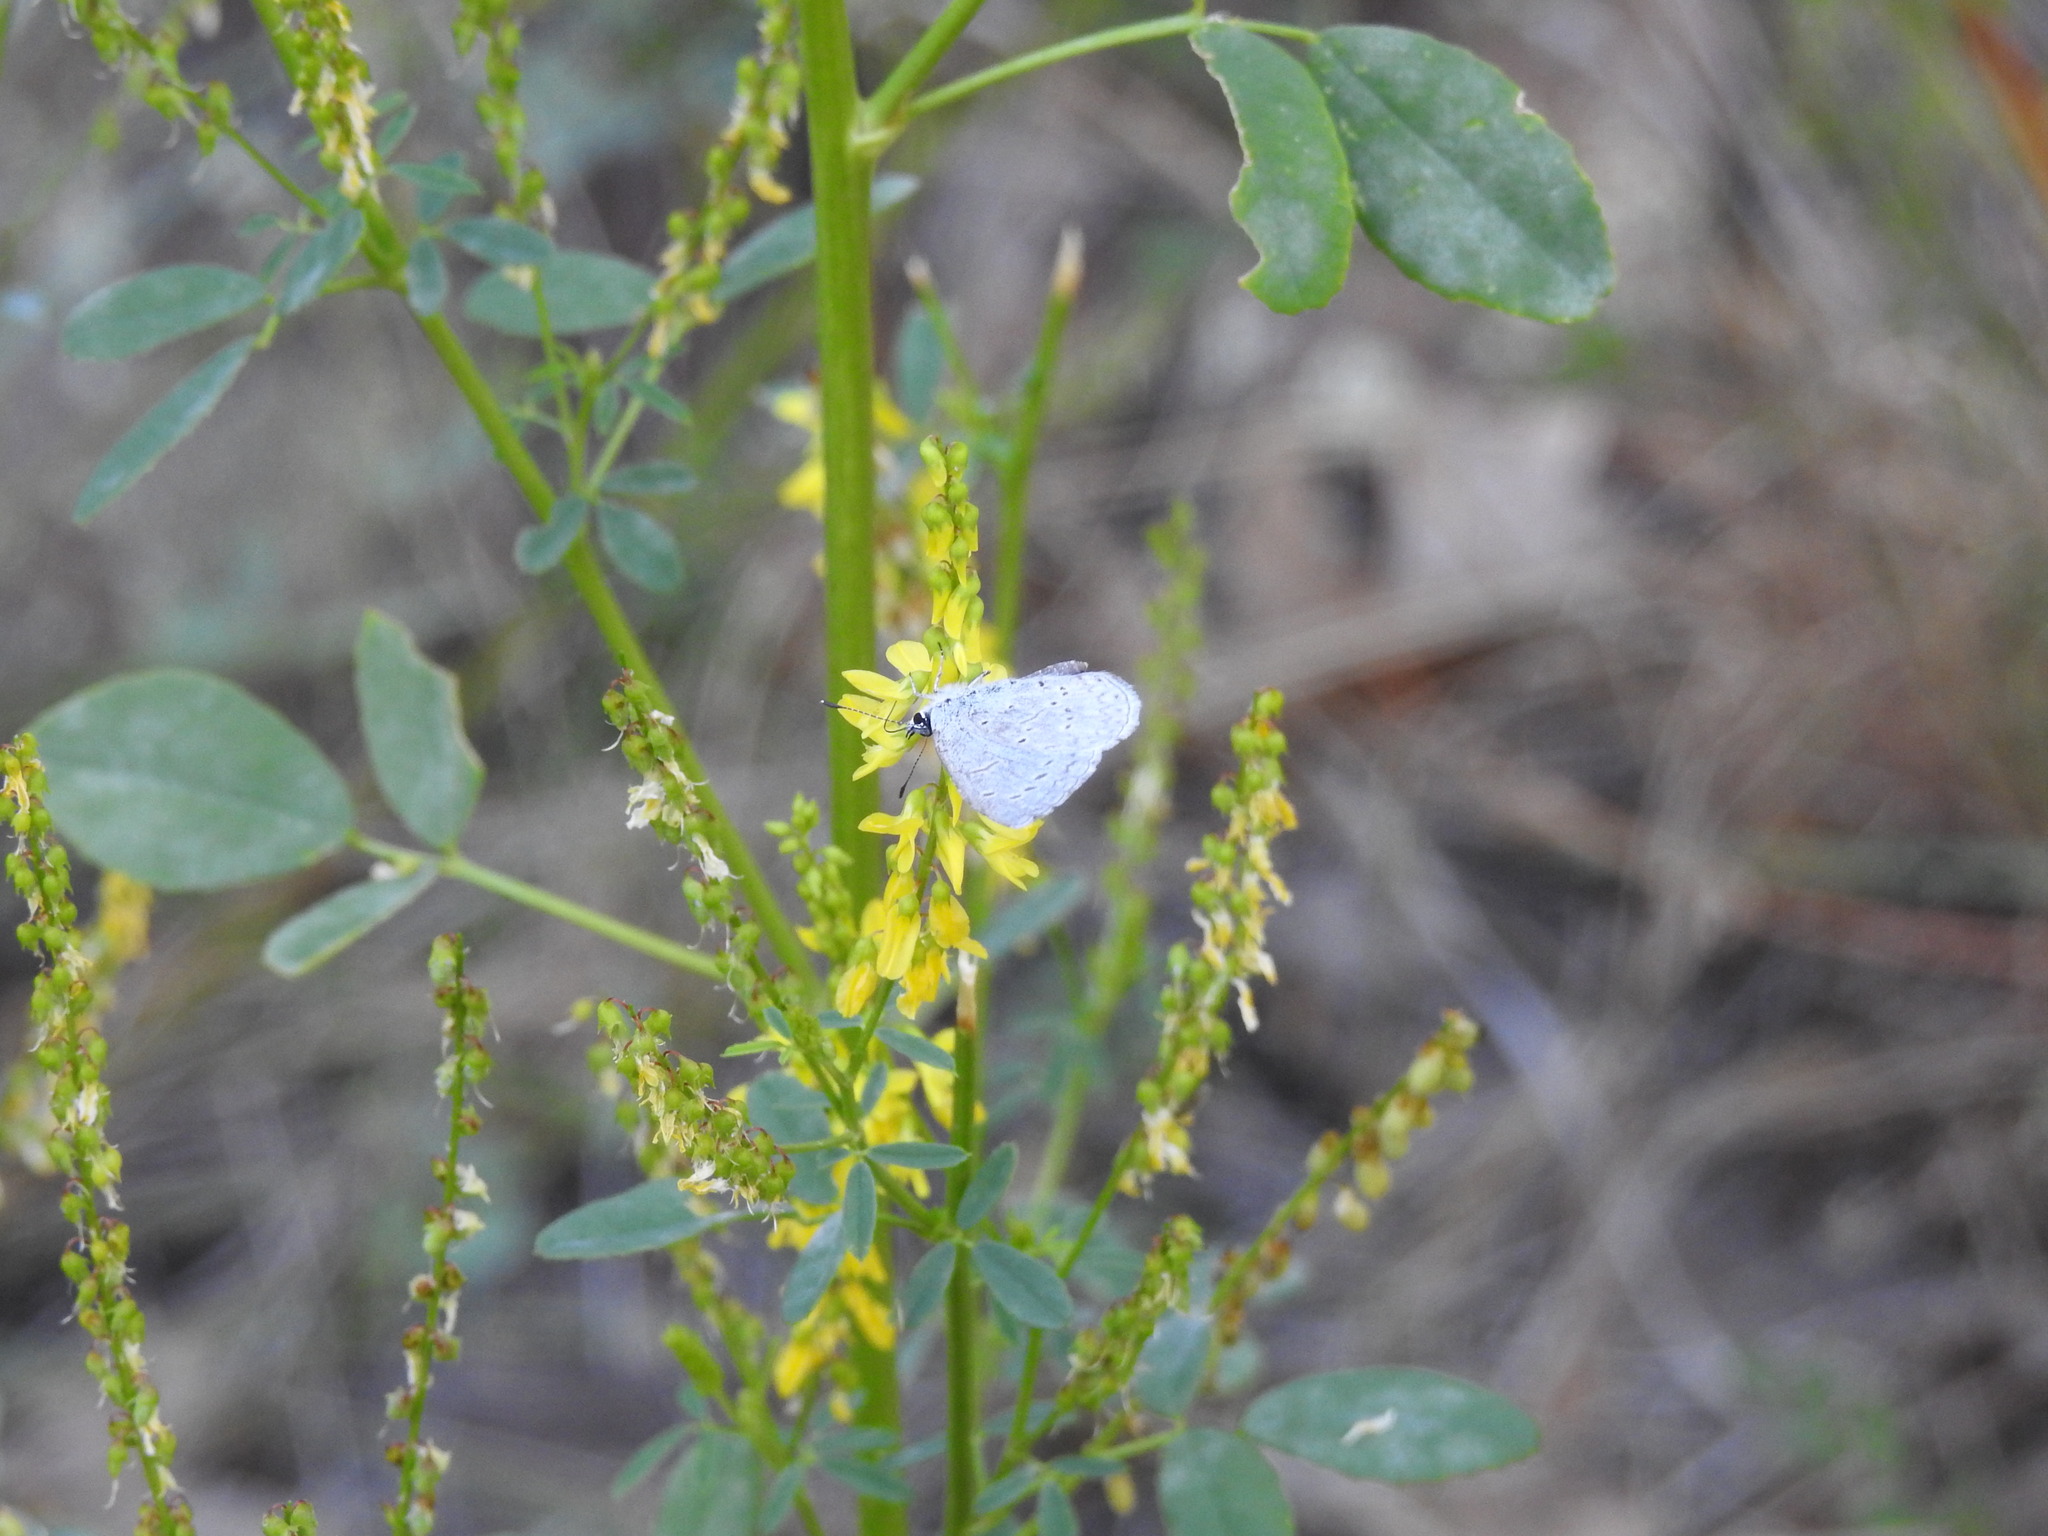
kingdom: Animalia
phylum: Arthropoda
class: Insecta
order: Lepidoptera
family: Lycaenidae
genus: Celastrina
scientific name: Celastrina ladon
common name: Spring azure
